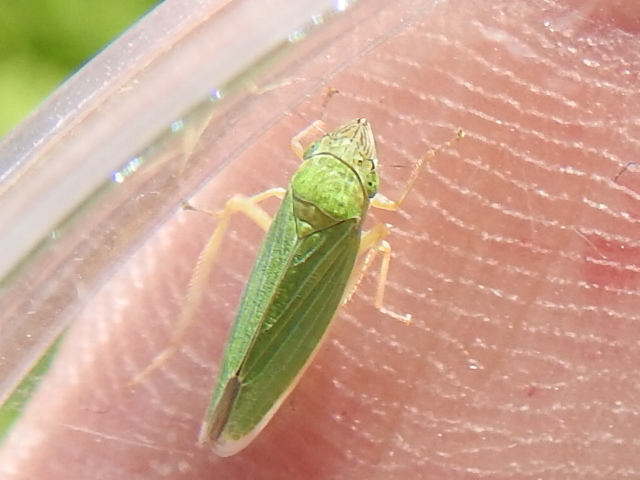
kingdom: Animalia
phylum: Arthropoda
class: Insecta
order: Hemiptera
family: Cicadellidae
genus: Draeculacephala
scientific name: Draeculacephala crassicornis
